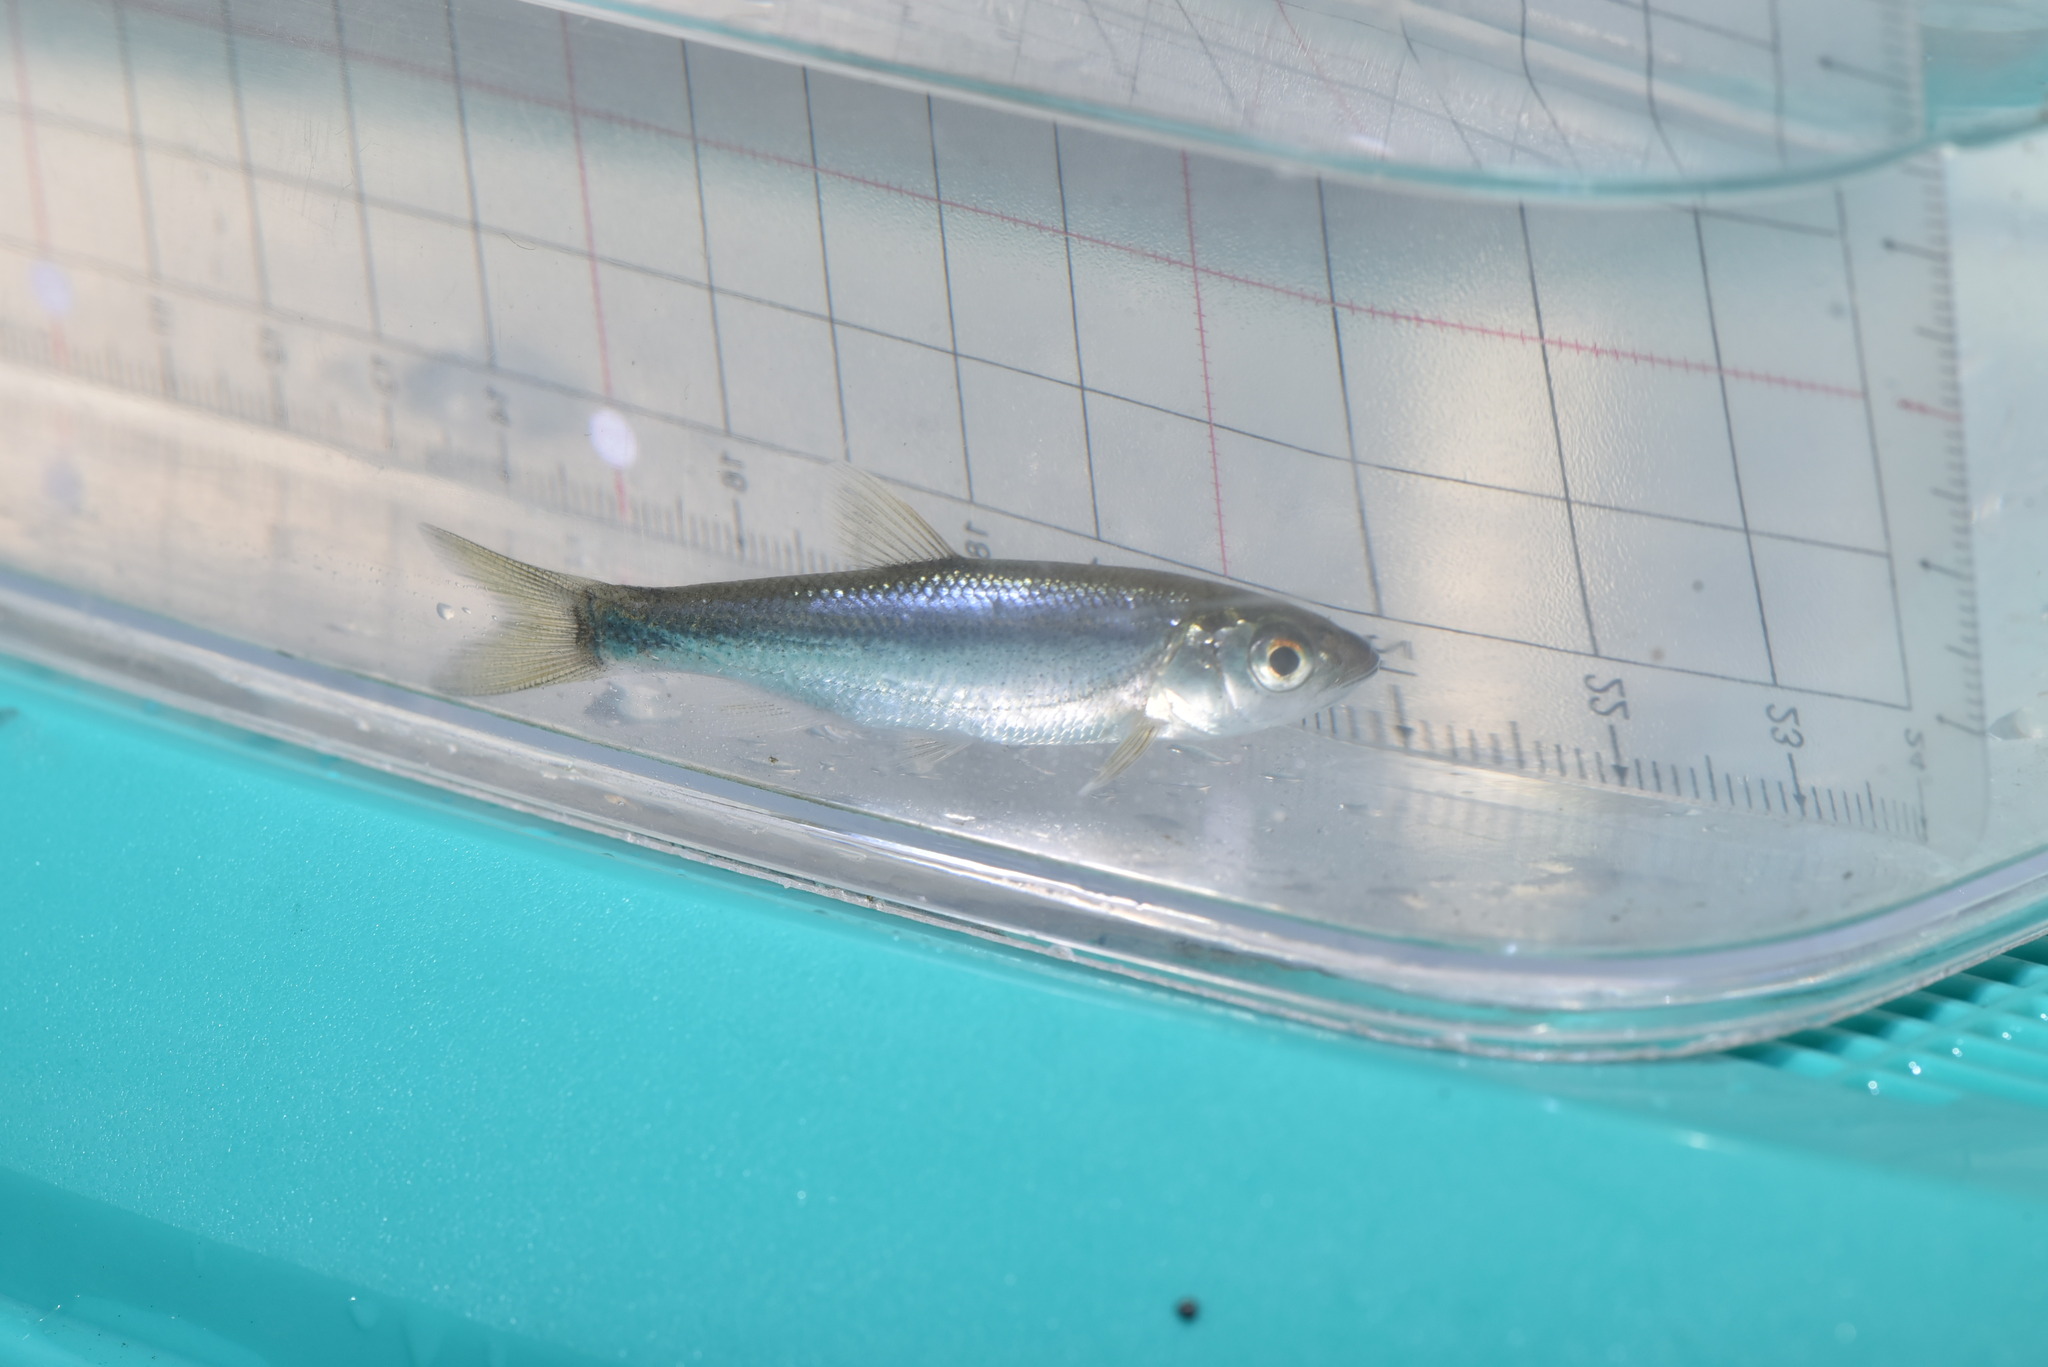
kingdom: Animalia
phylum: Chordata
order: Cypriniformes
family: Cyprinidae
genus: Candidia
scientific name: Candidia barbata
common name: Lake candidus dace
